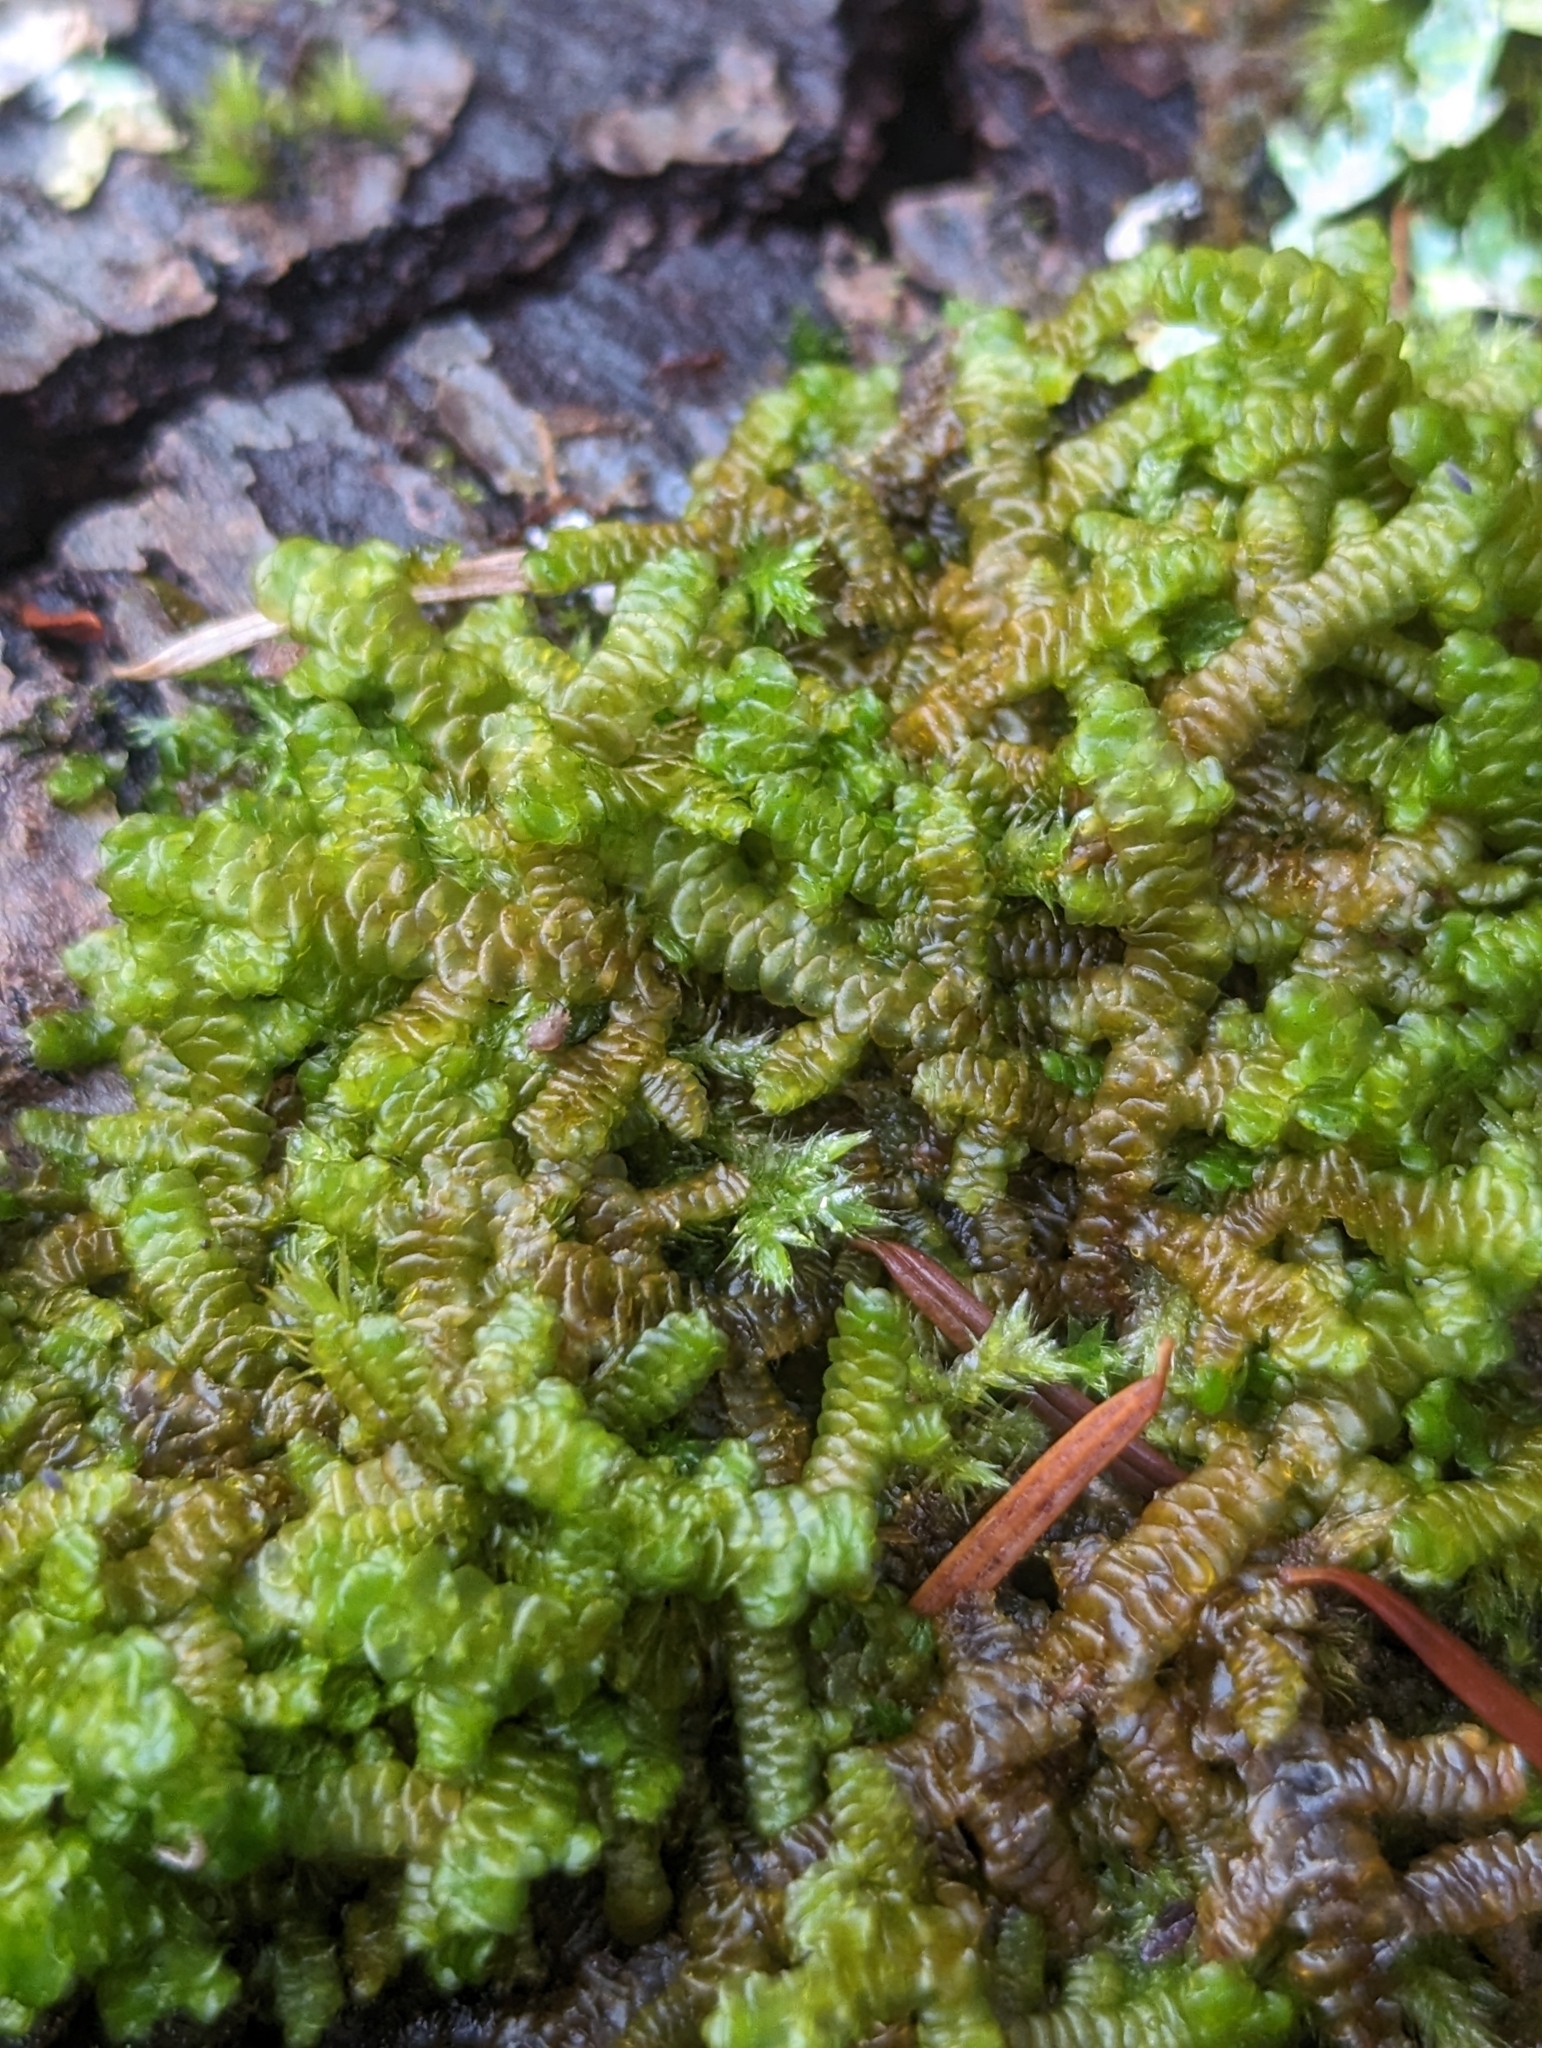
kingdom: Plantae
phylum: Marchantiophyta
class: Jungermanniopsida
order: Porellales
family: Porellaceae
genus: Porella
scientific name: Porella navicularis
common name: Tree ruffle liverwort
